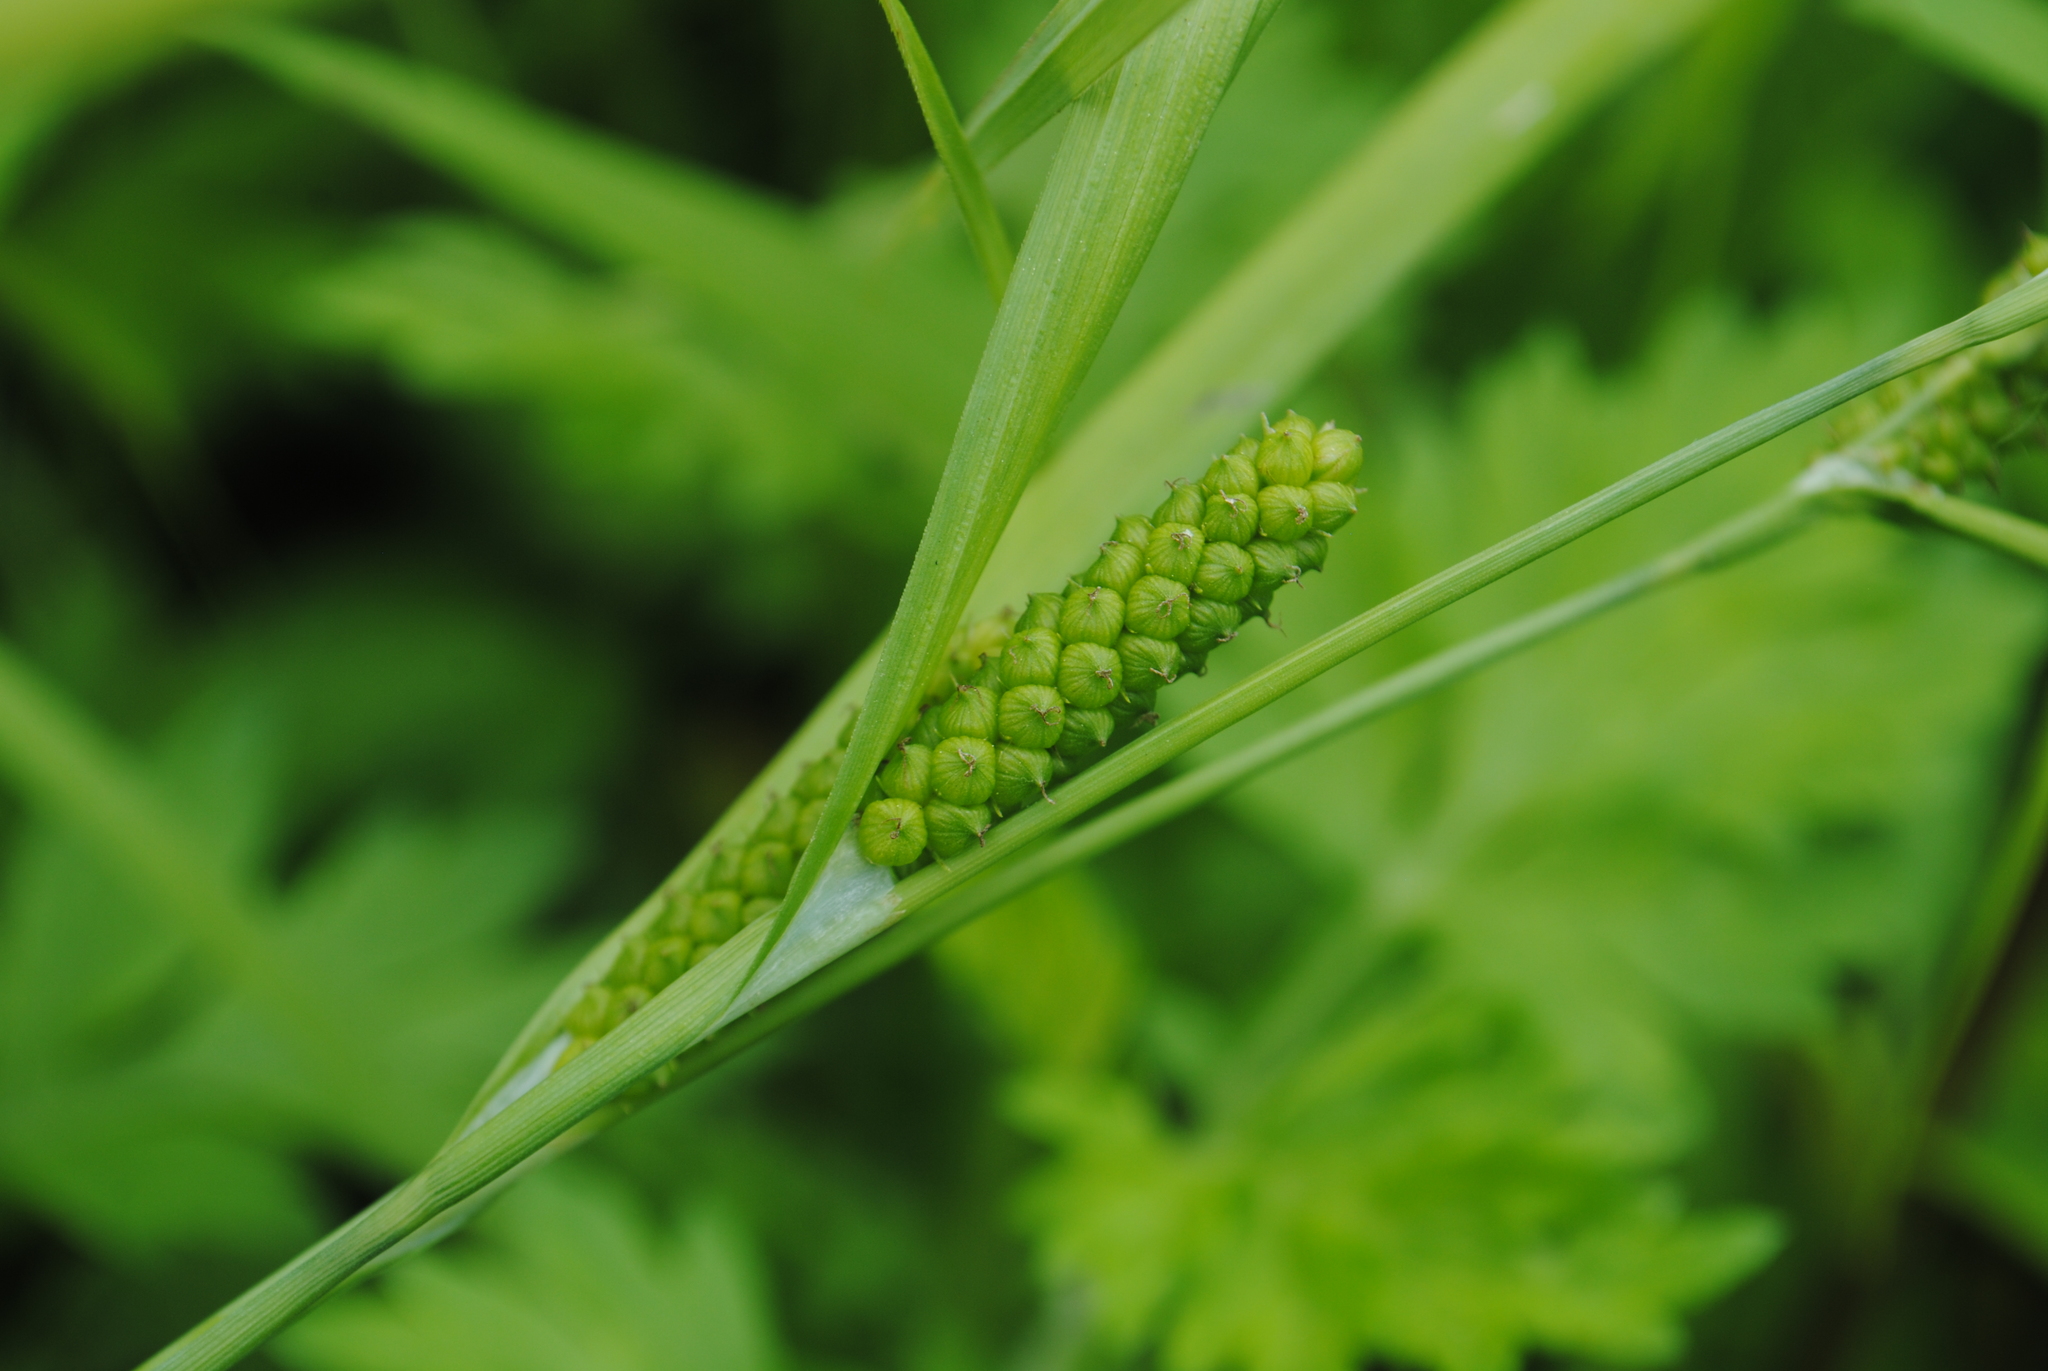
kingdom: Plantae
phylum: Tracheophyta
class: Liliopsida
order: Poales
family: Cyperaceae
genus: Carex
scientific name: Carex granularis
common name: Granular sedge
